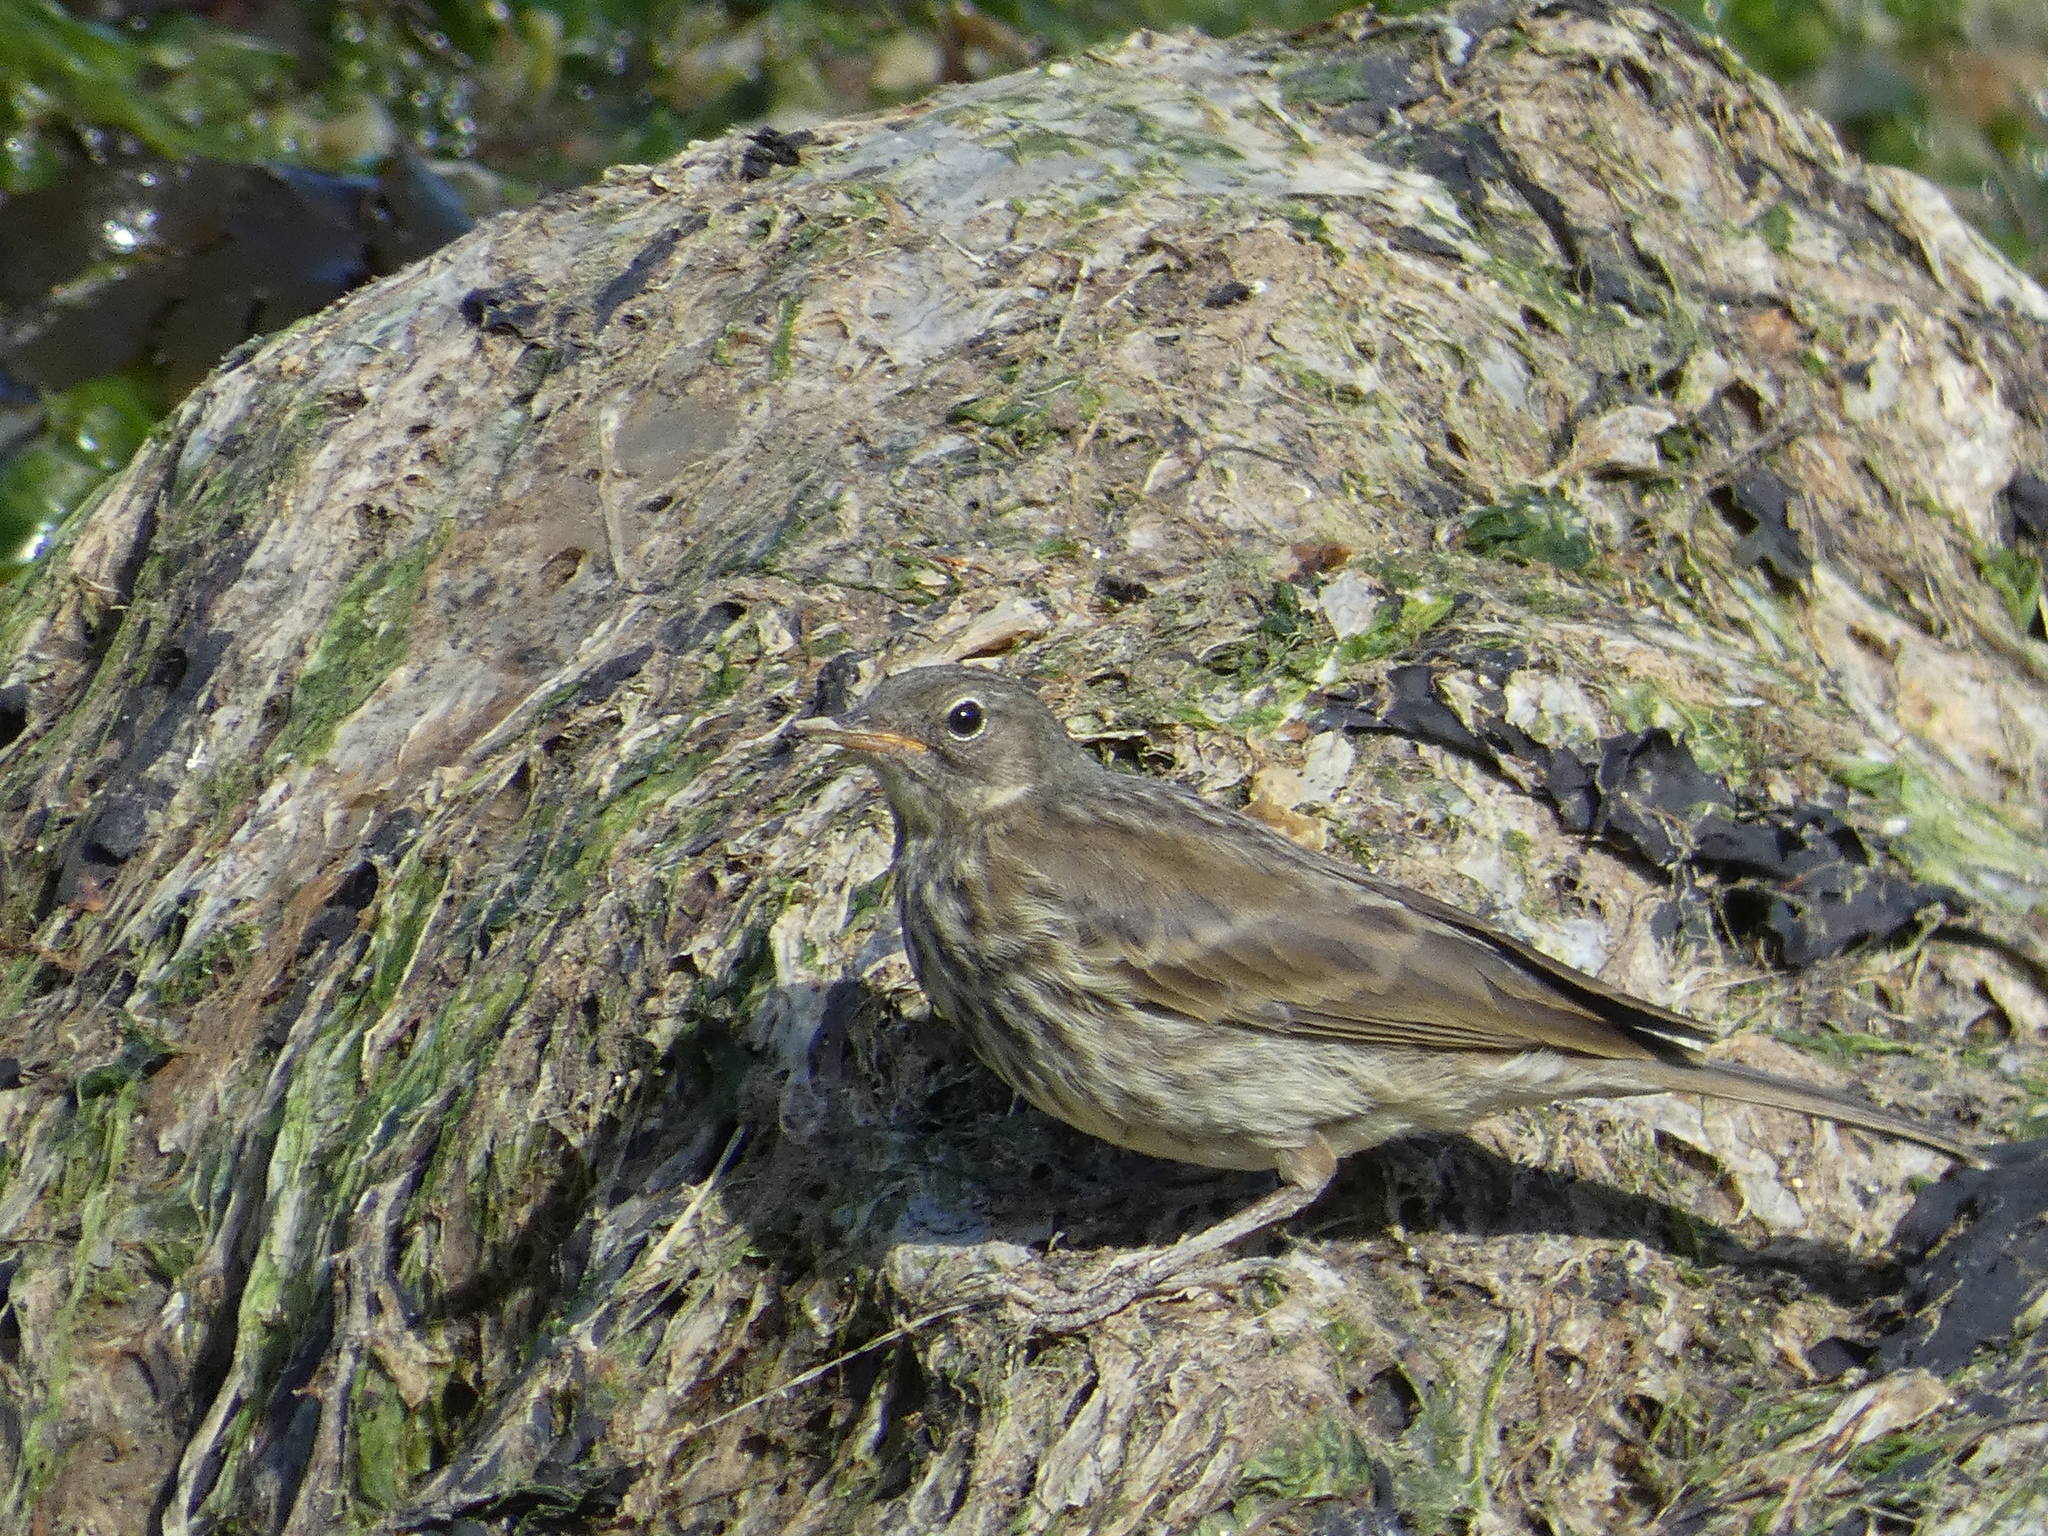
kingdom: Animalia
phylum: Chordata
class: Aves
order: Passeriformes
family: Motacillidae
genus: Anthus
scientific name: Anthus petrosus
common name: Eurasian rock pipit
